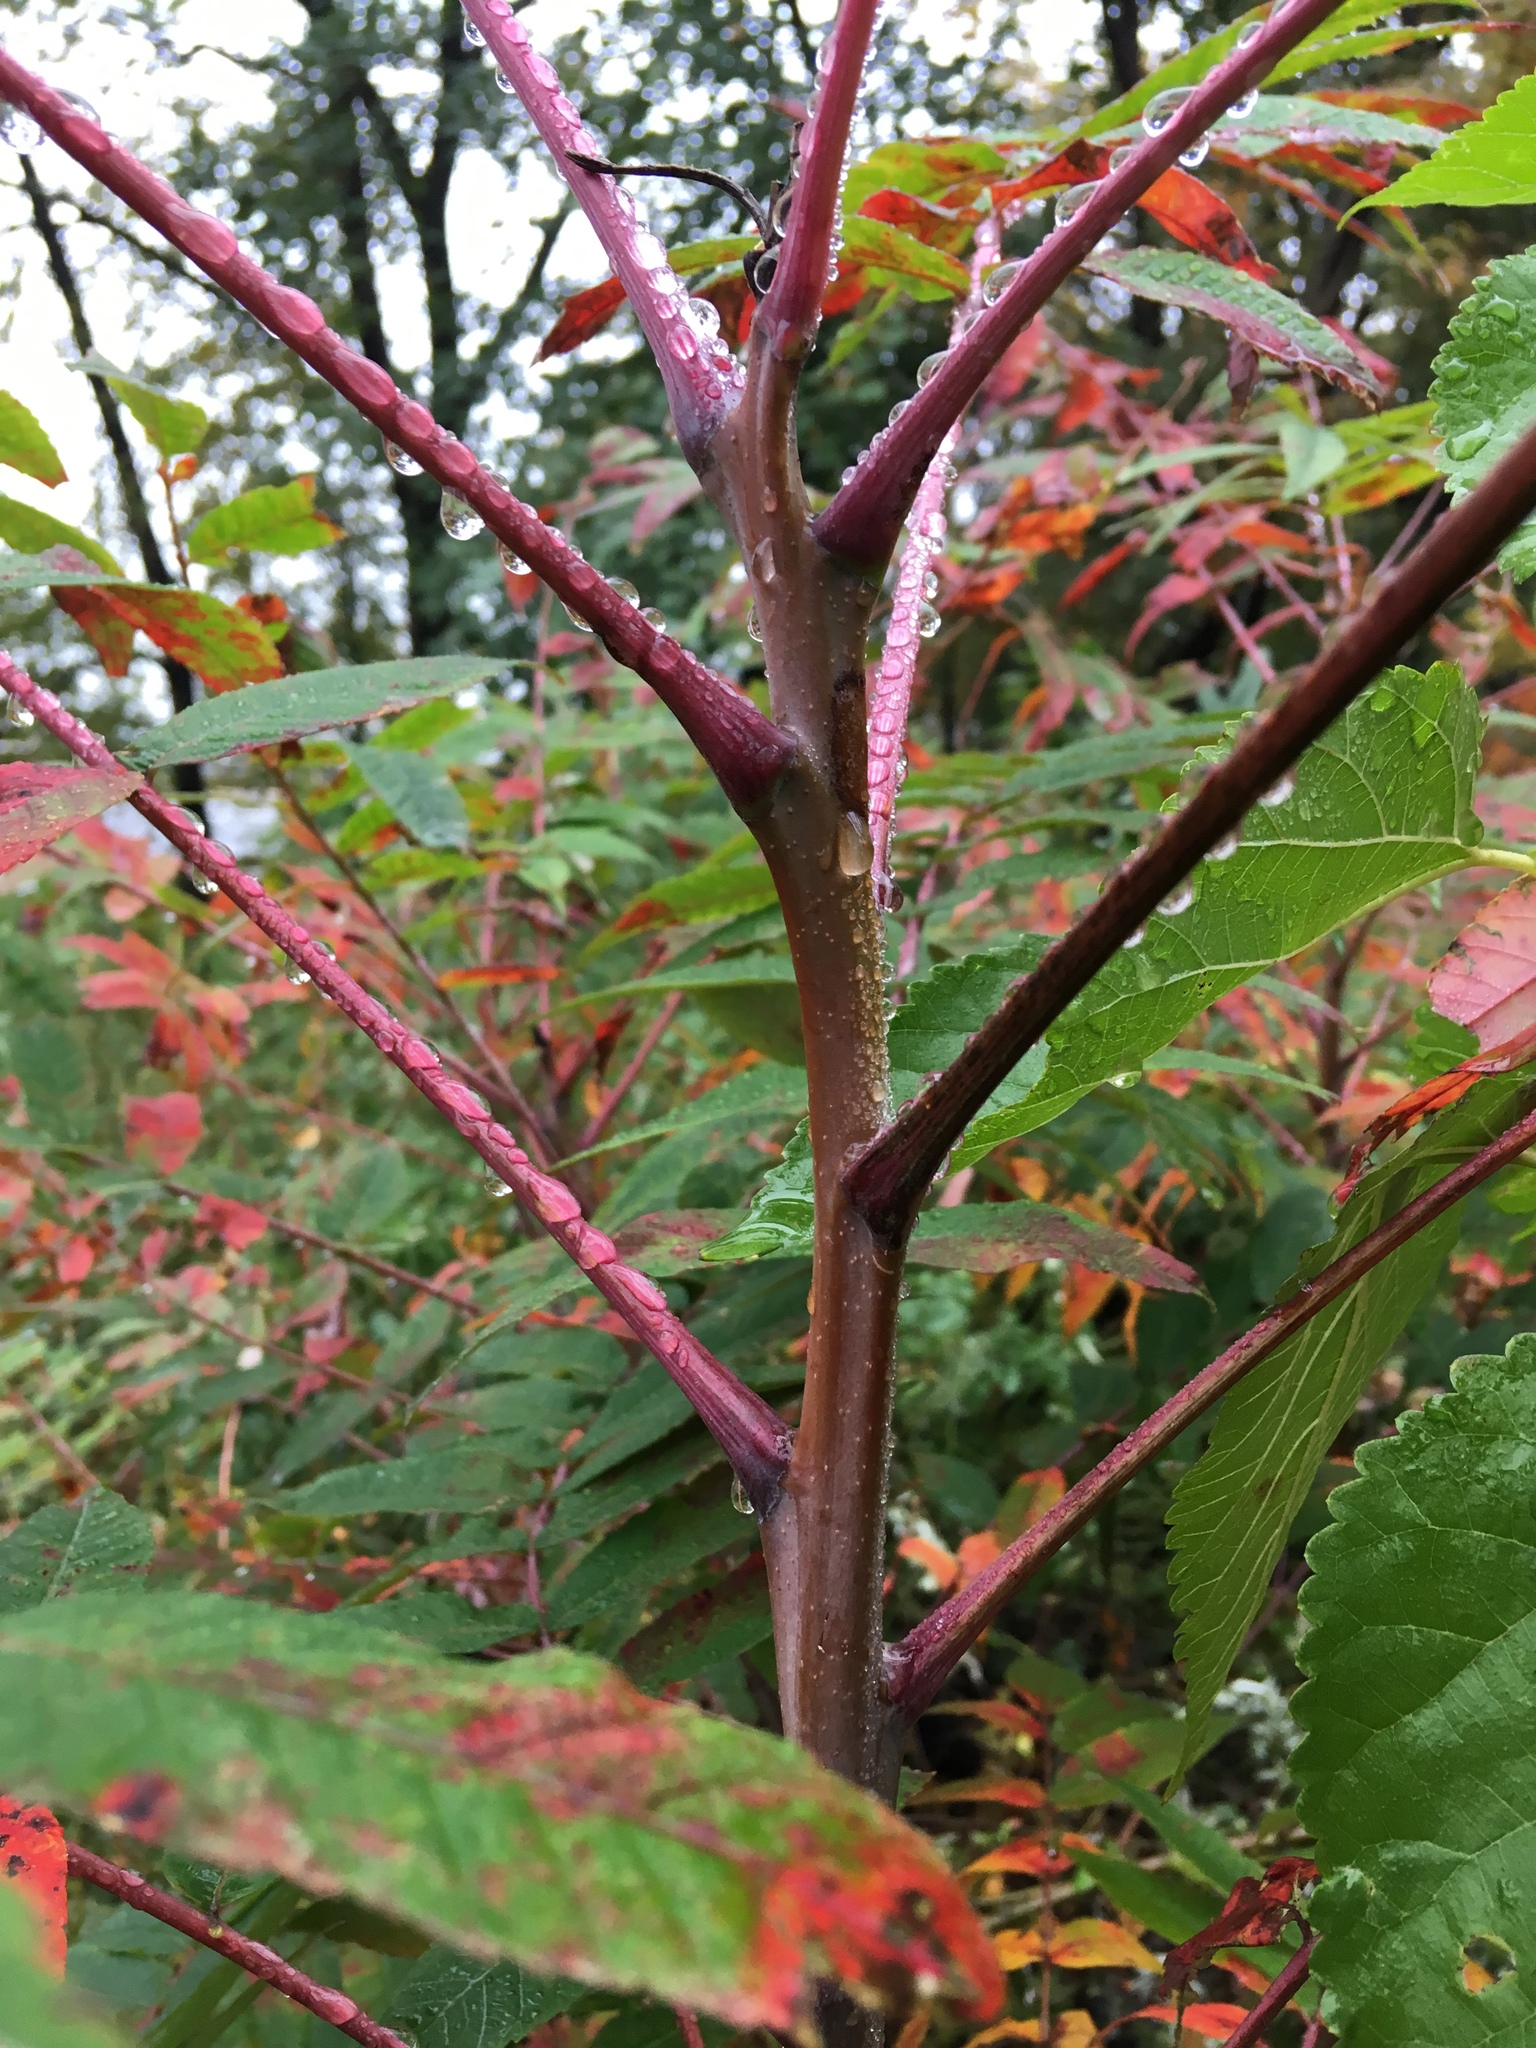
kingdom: Plantae
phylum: Tracheophyta
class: Magnoliopsida
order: Sapindales
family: Anacardiaceae
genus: Rhus
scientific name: Rhus glabra
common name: Scarlet sumac
